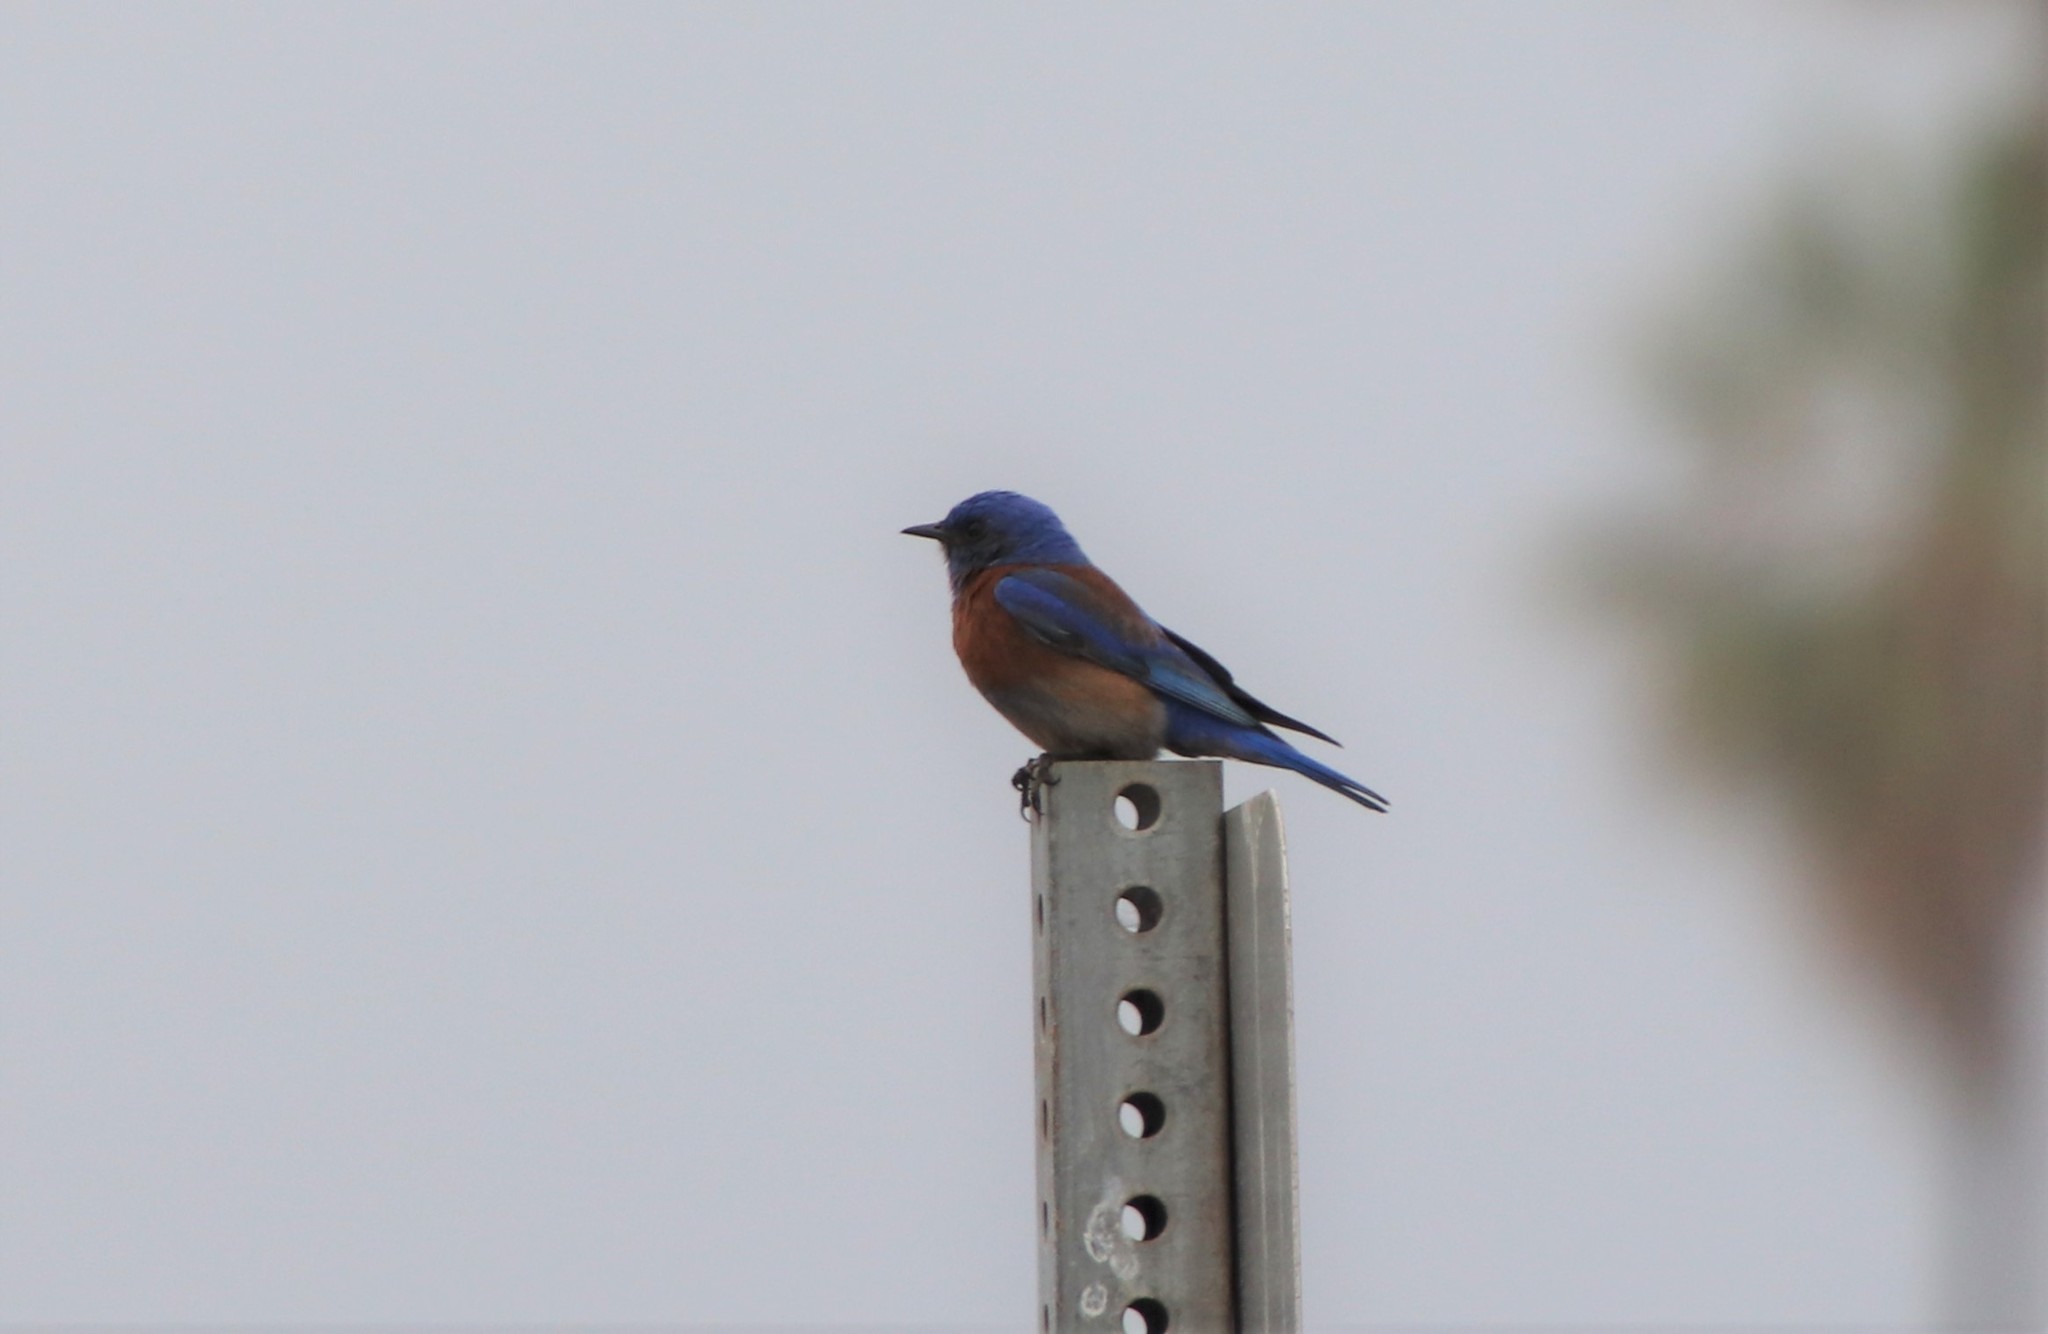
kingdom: Animalia
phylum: Chordata
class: Aves
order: Passeriformes
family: Turdidae
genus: Sialia
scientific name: Sialia mexicana
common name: Western bluebird
